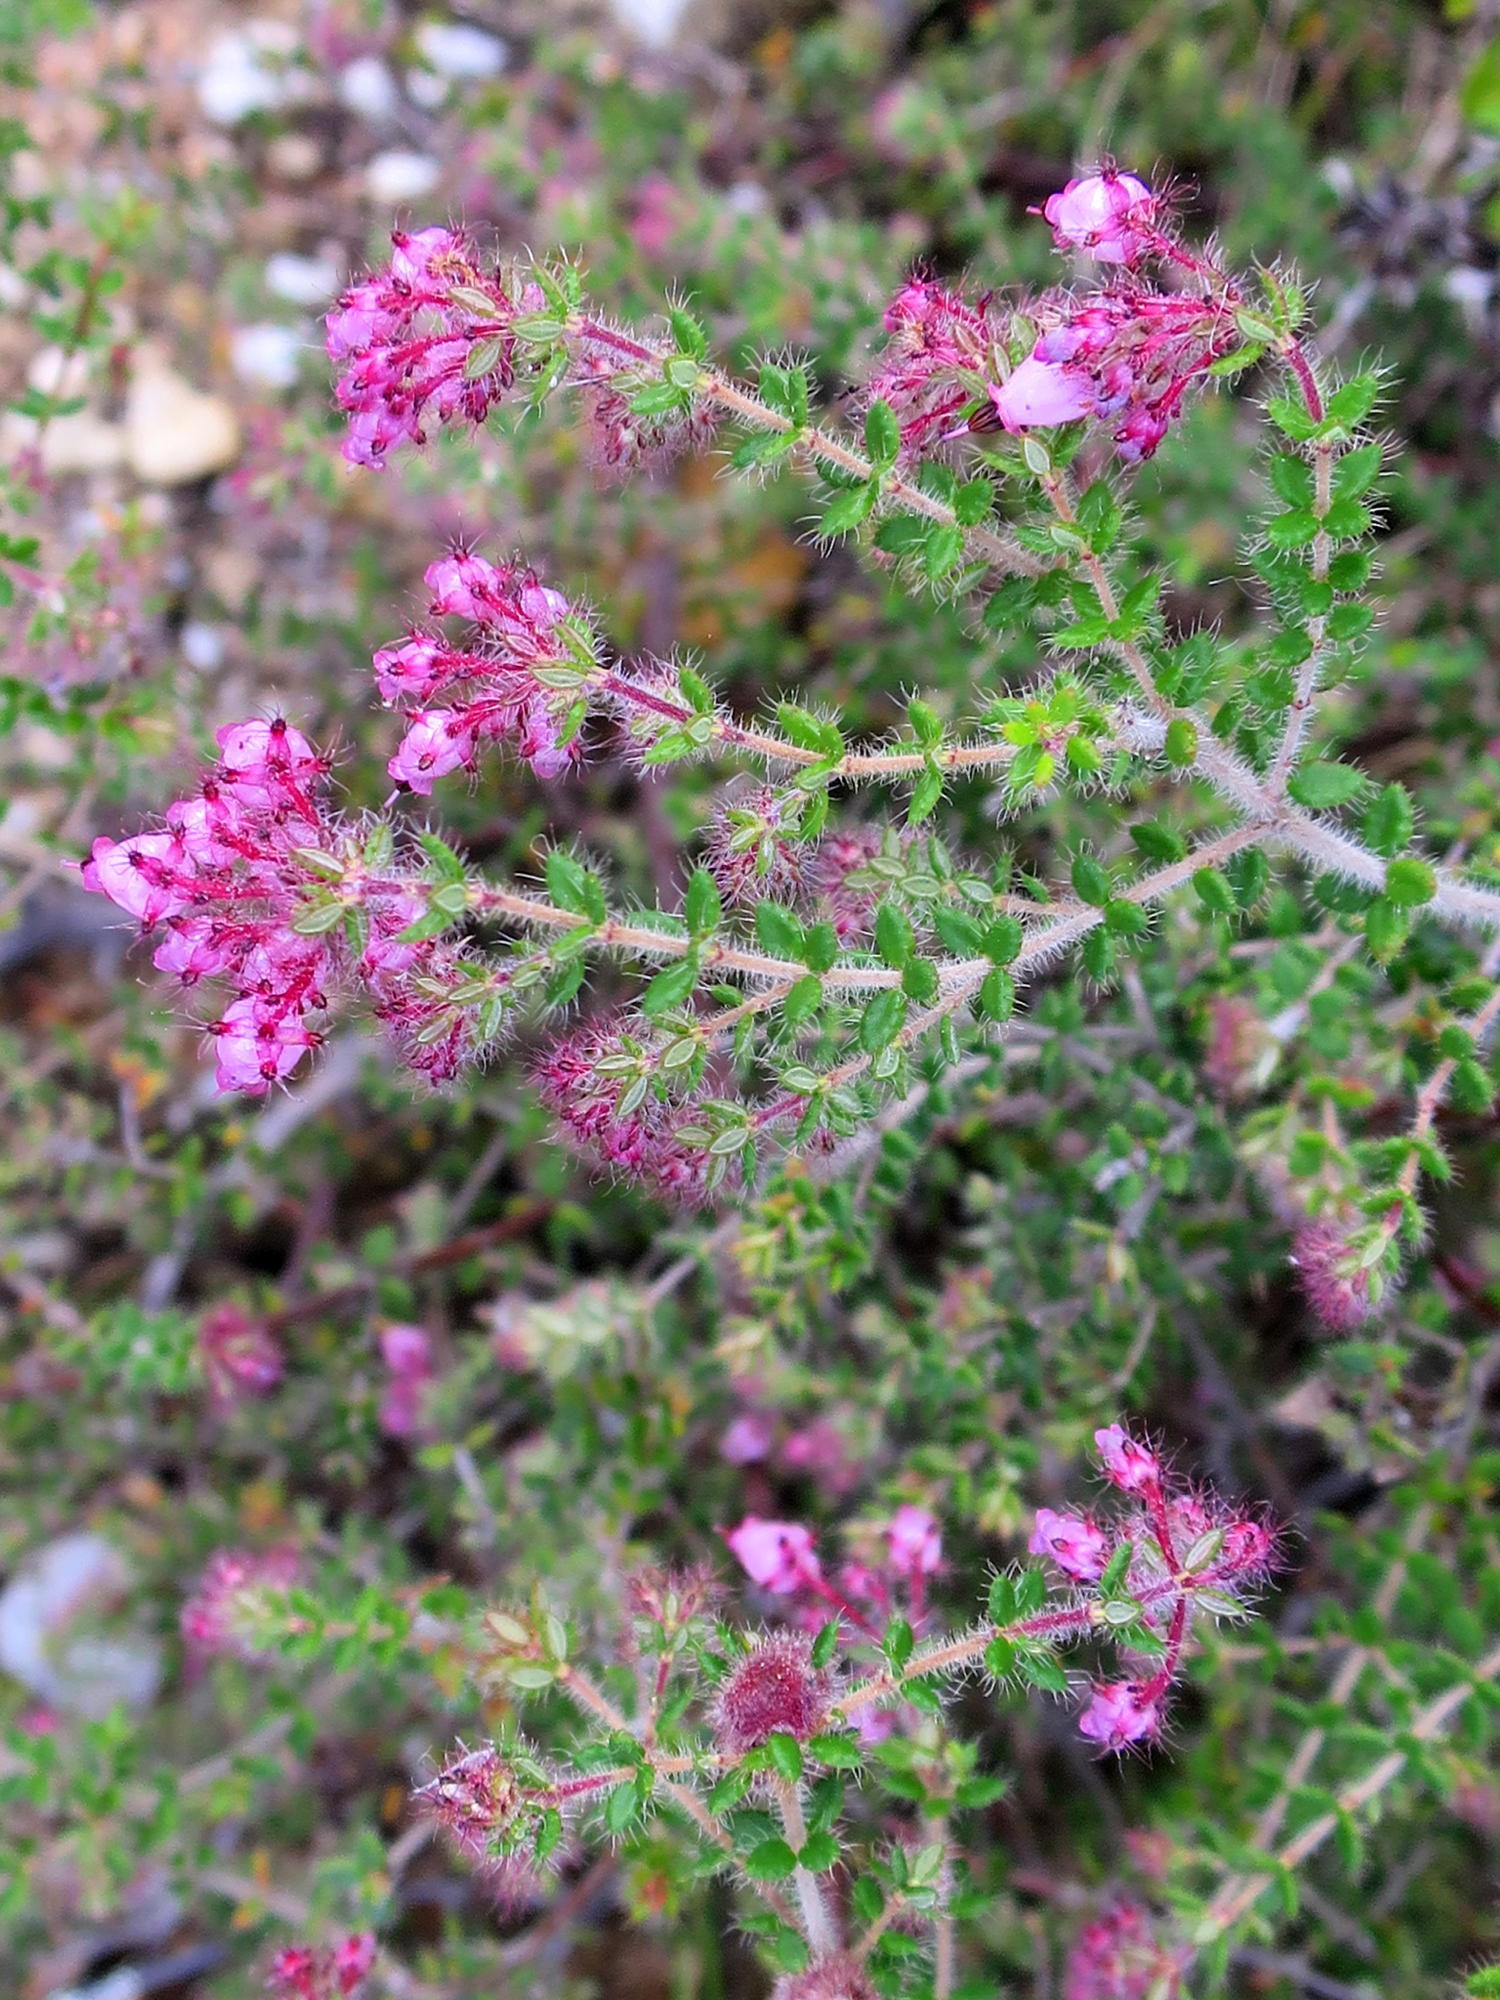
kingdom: Plantae
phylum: Tracheophyta
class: Magnoliopsida
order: Ericales
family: Ericaceae
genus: Erica
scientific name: Erica aneimena
